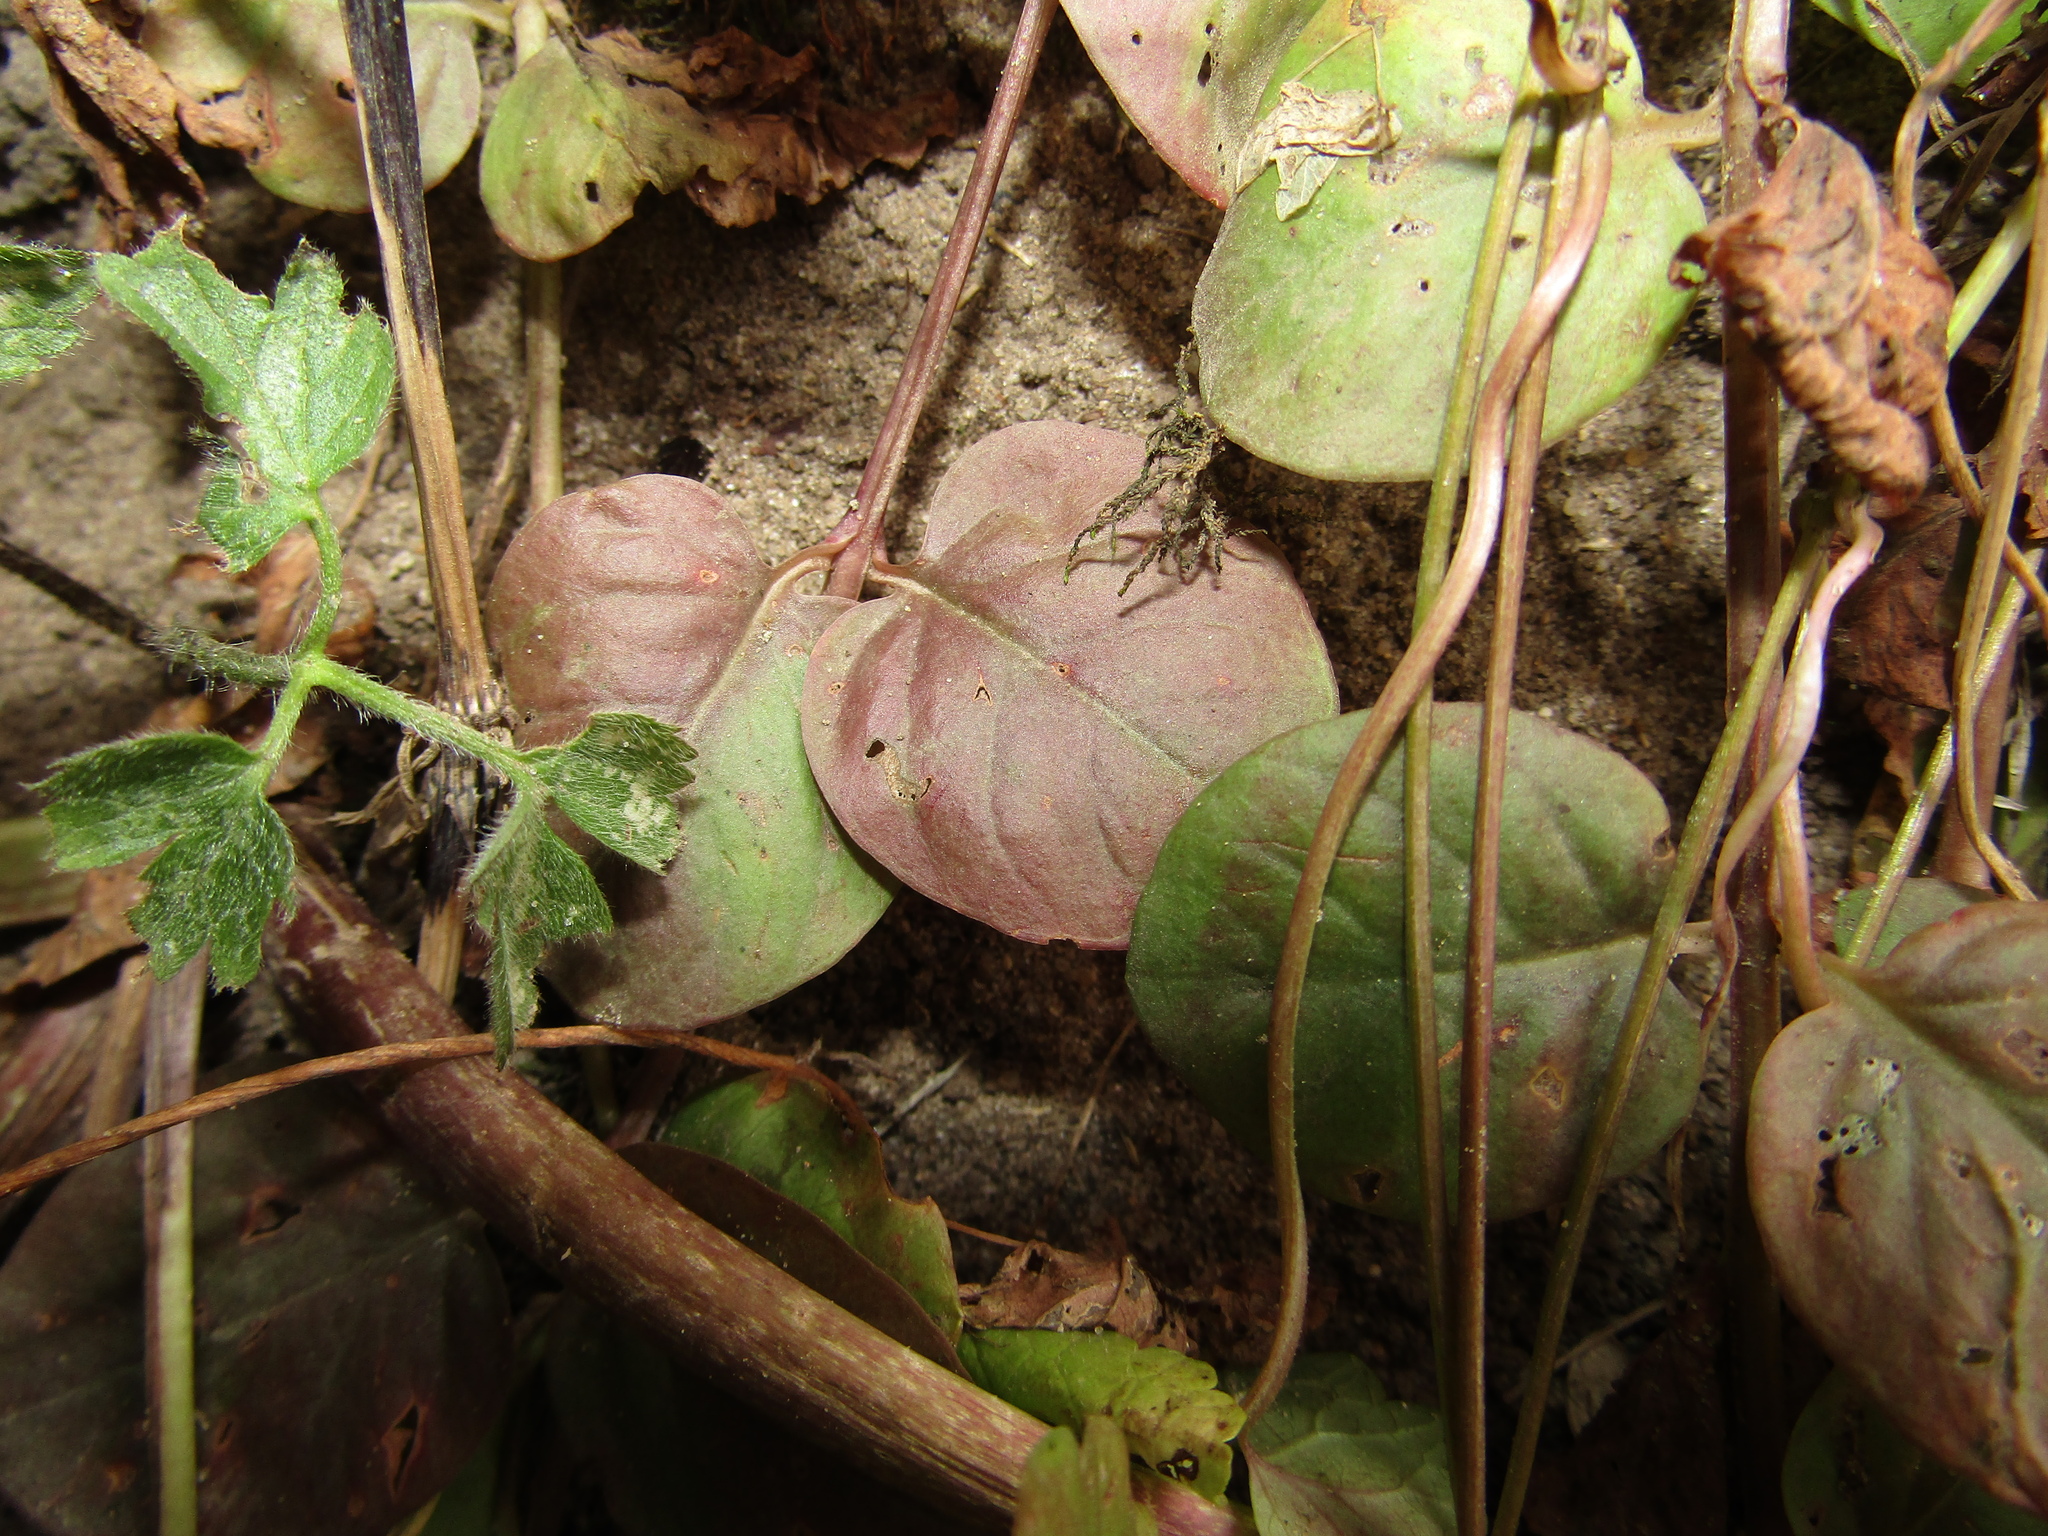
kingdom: Plantae
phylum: Tracheophyta
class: Magnoliopsida
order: Ericales
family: Primulaceae
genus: Lysimachia
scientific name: Lysimachia nummularia
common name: Moneywort
